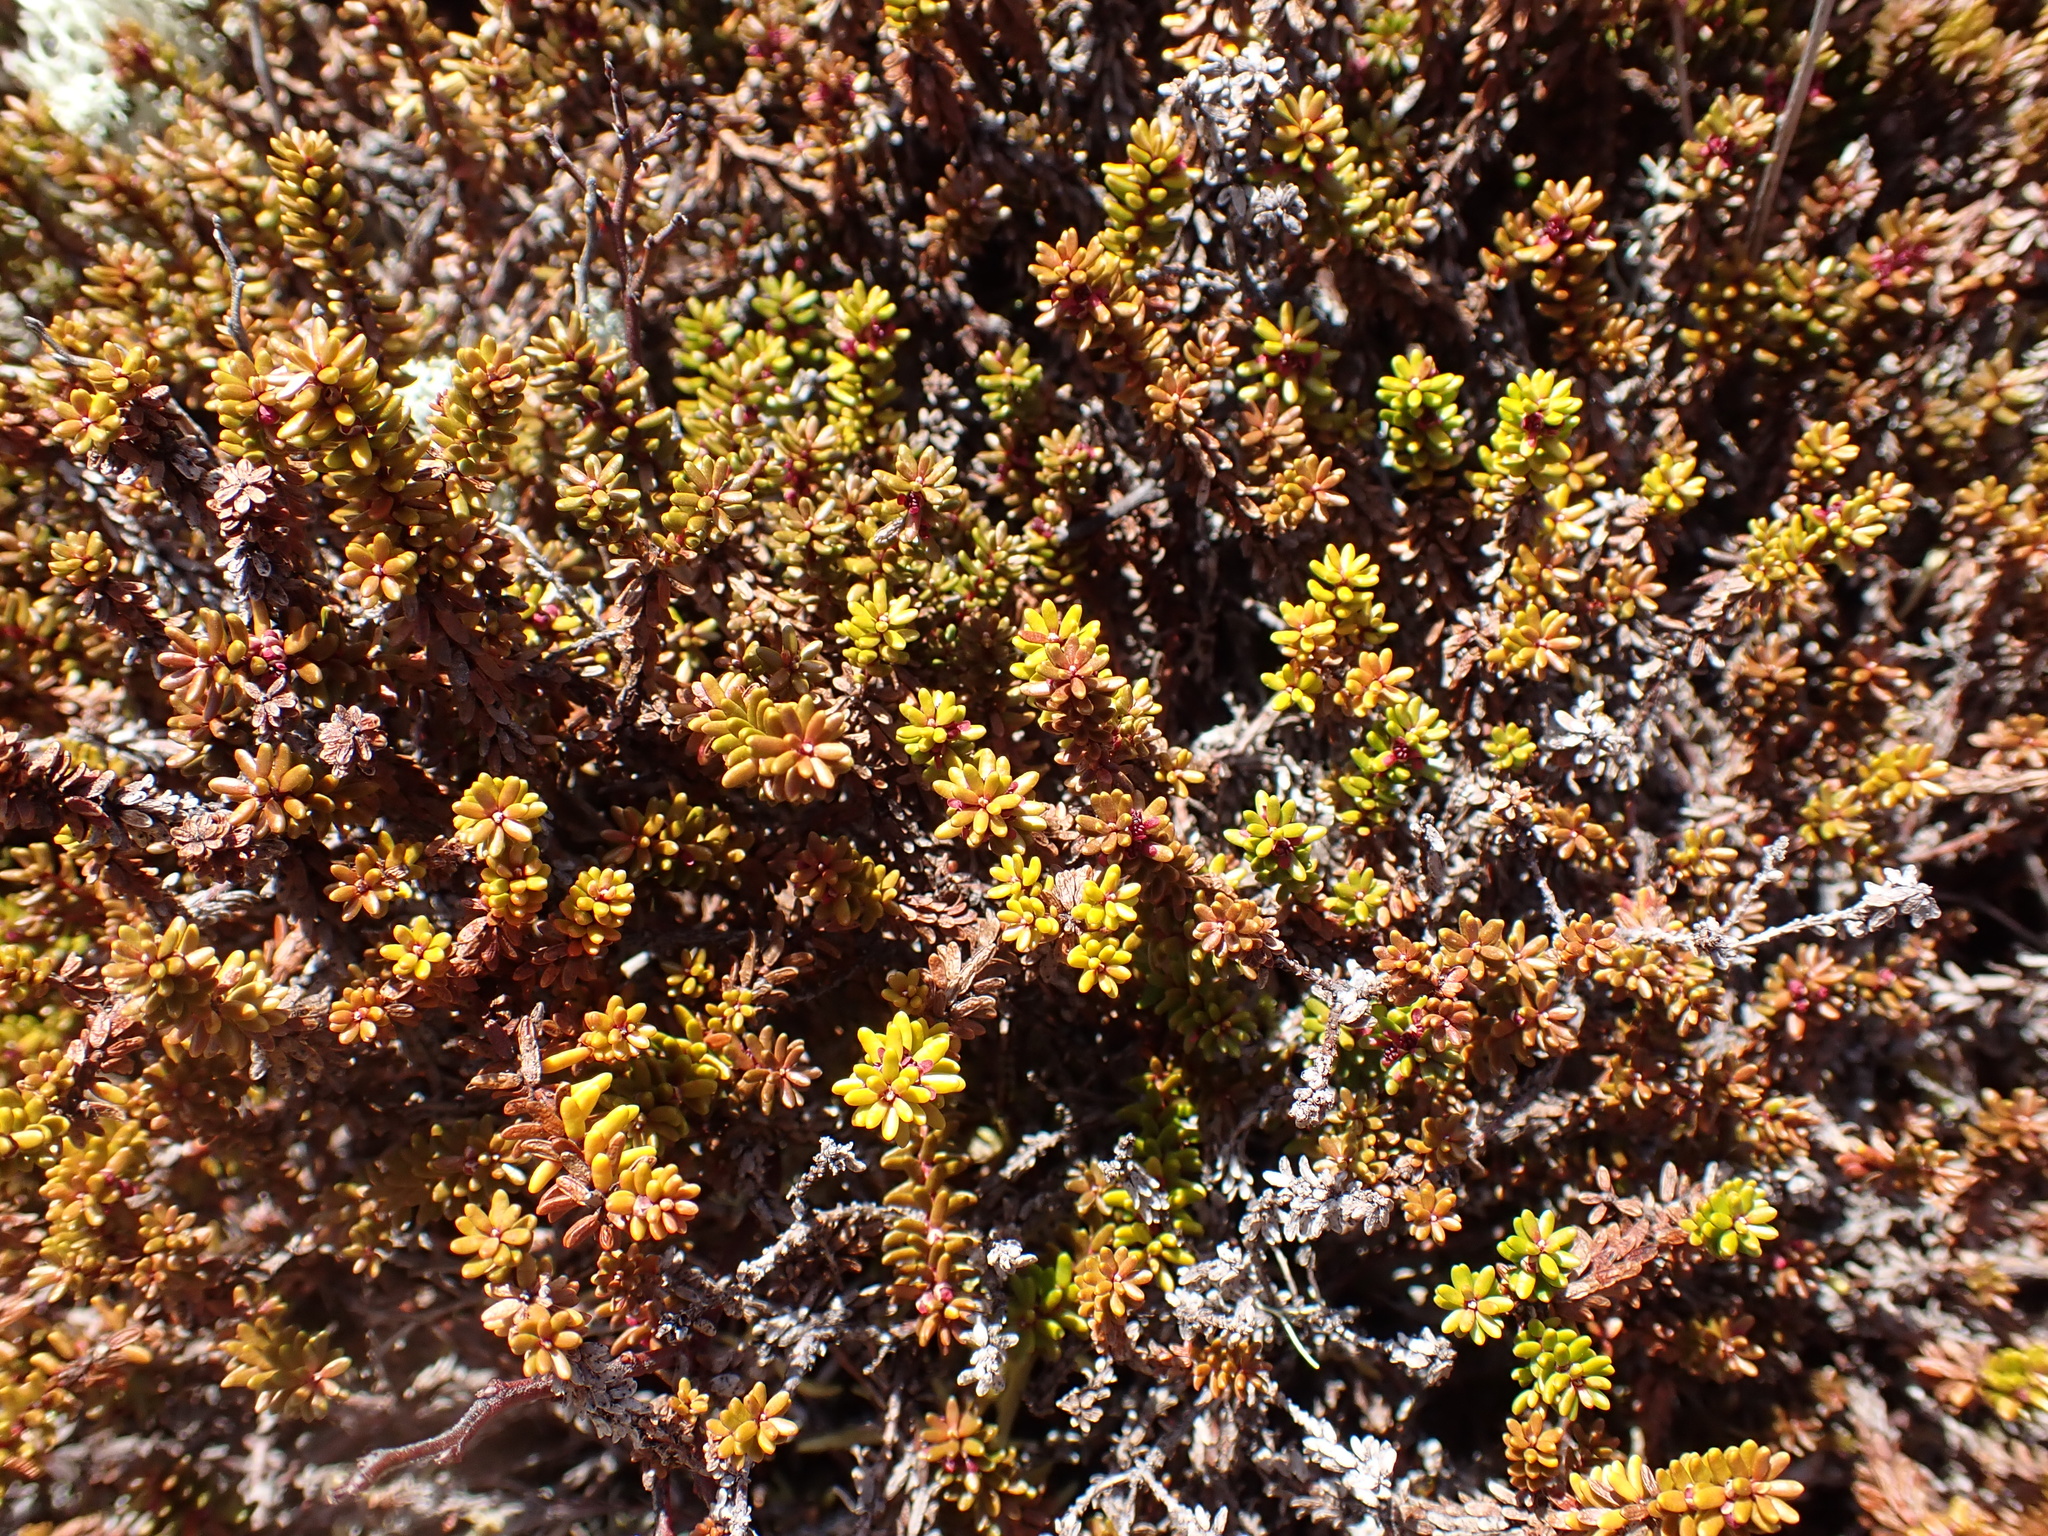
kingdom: Plantae
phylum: Tracheophyta
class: Magnoliopsida
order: Ericales
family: Ericaceae
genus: Empetrum
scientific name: Empetrum nigrum
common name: Black crowberry
